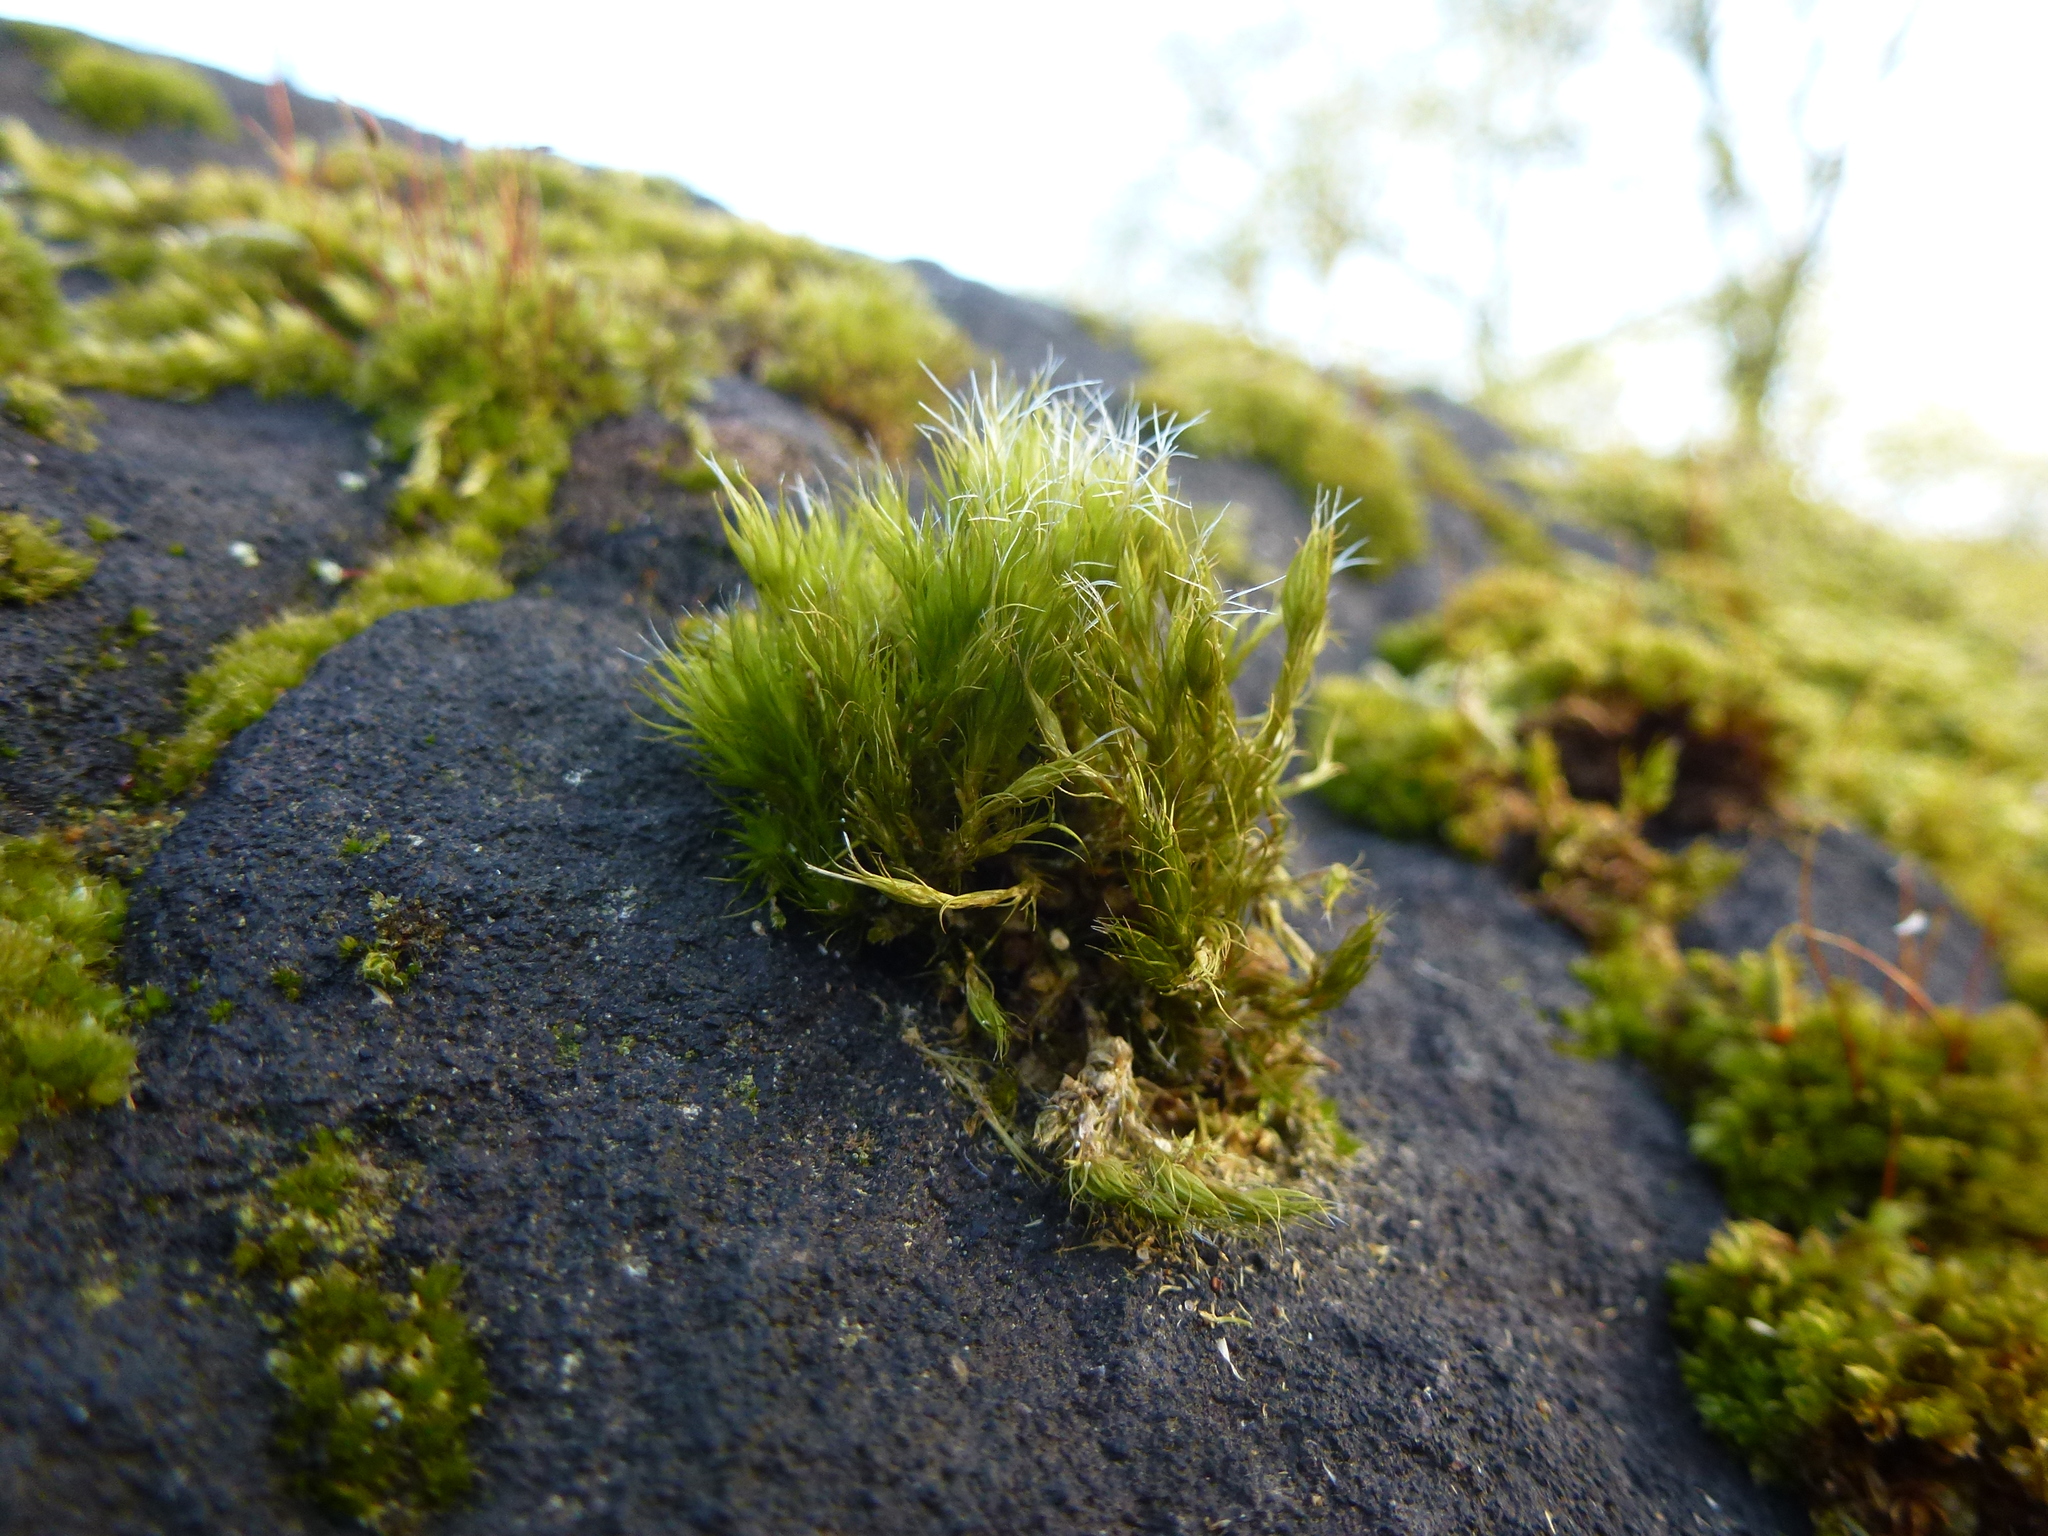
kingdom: Plantae
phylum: Bryophyta
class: Bryopsida
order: Dicranales
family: Leucobryaceae
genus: Campylopus
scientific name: Campylopus introflexus
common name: Heath star moss
